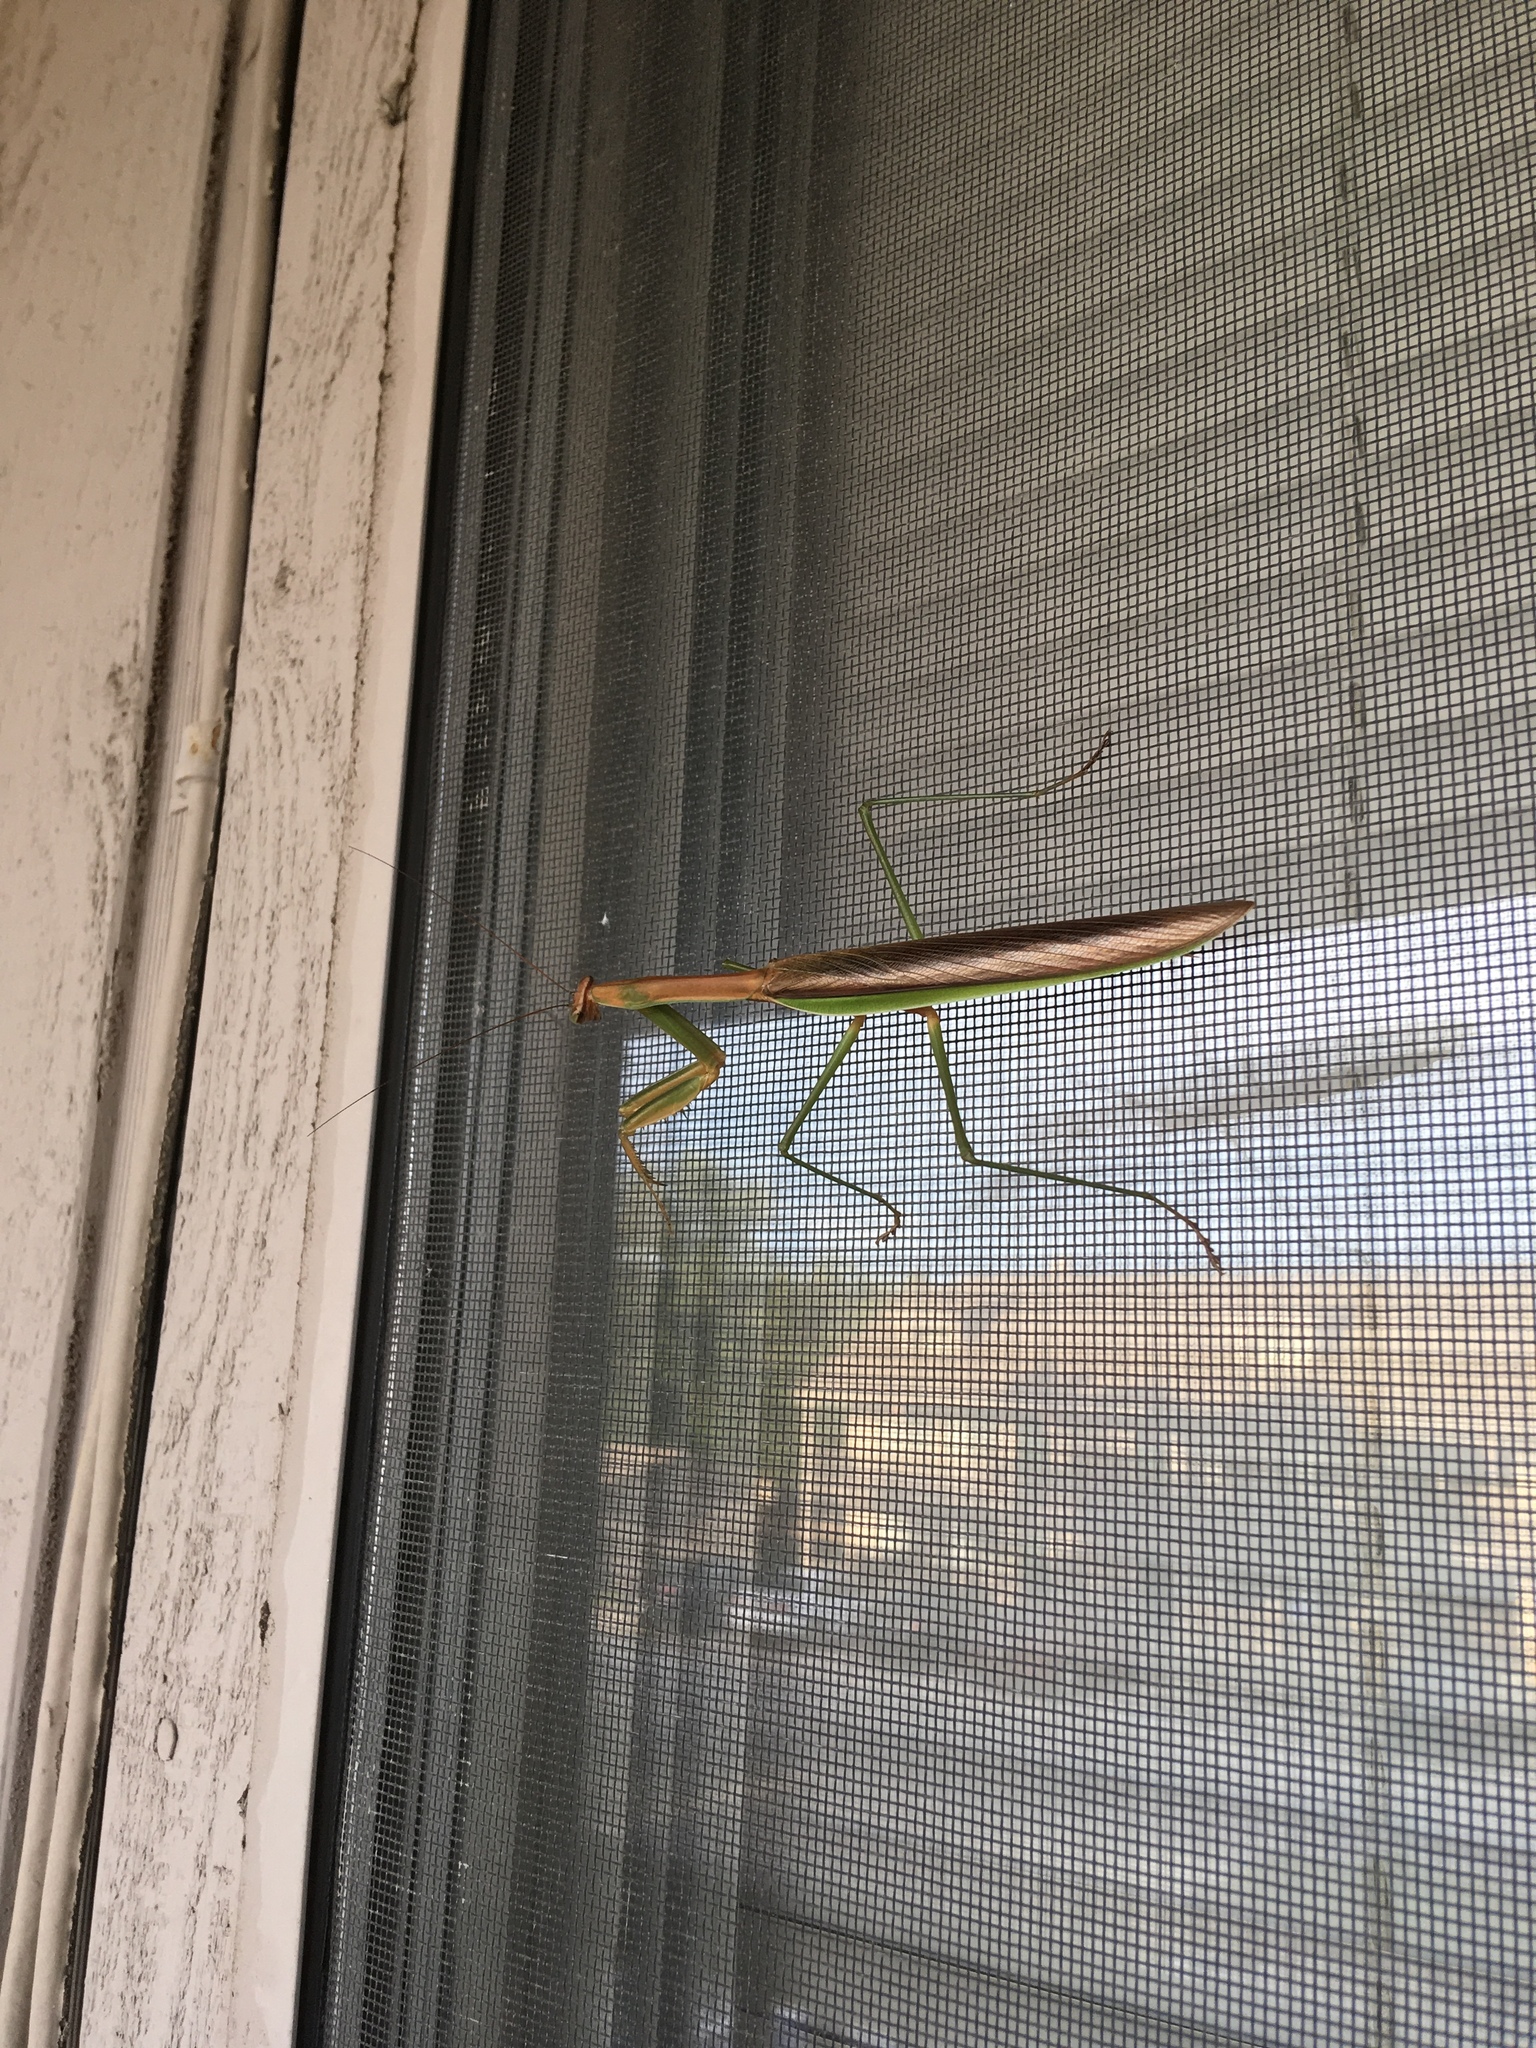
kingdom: Animalia
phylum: Arthropoda
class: Insecta
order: Mantodea
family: Mantidae
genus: Tenodera
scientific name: Tenodera sinensis
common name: Chinese mantis
